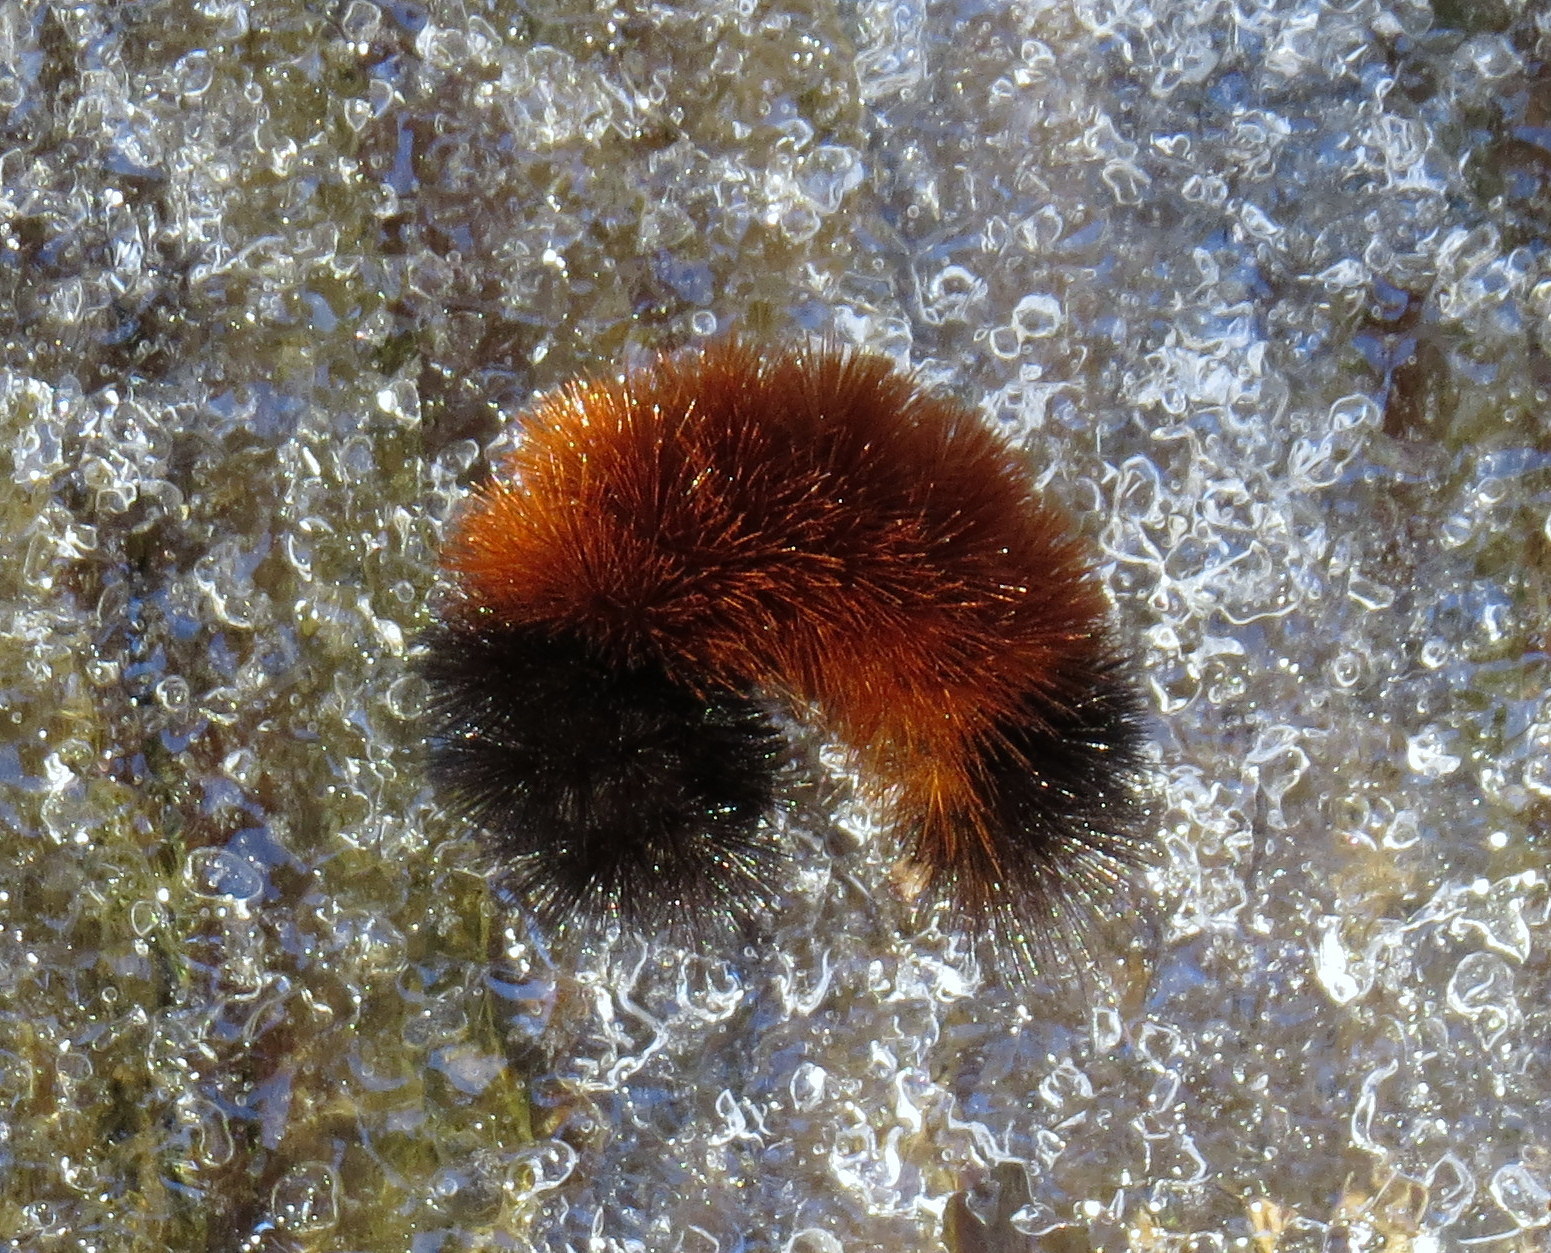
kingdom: Animalia
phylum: Arthropoda
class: Insecta
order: Lepidoptera
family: Erebidae
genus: Pyrrharctia
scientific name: Pyrrharctia isabella
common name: Isabella tiger moth
